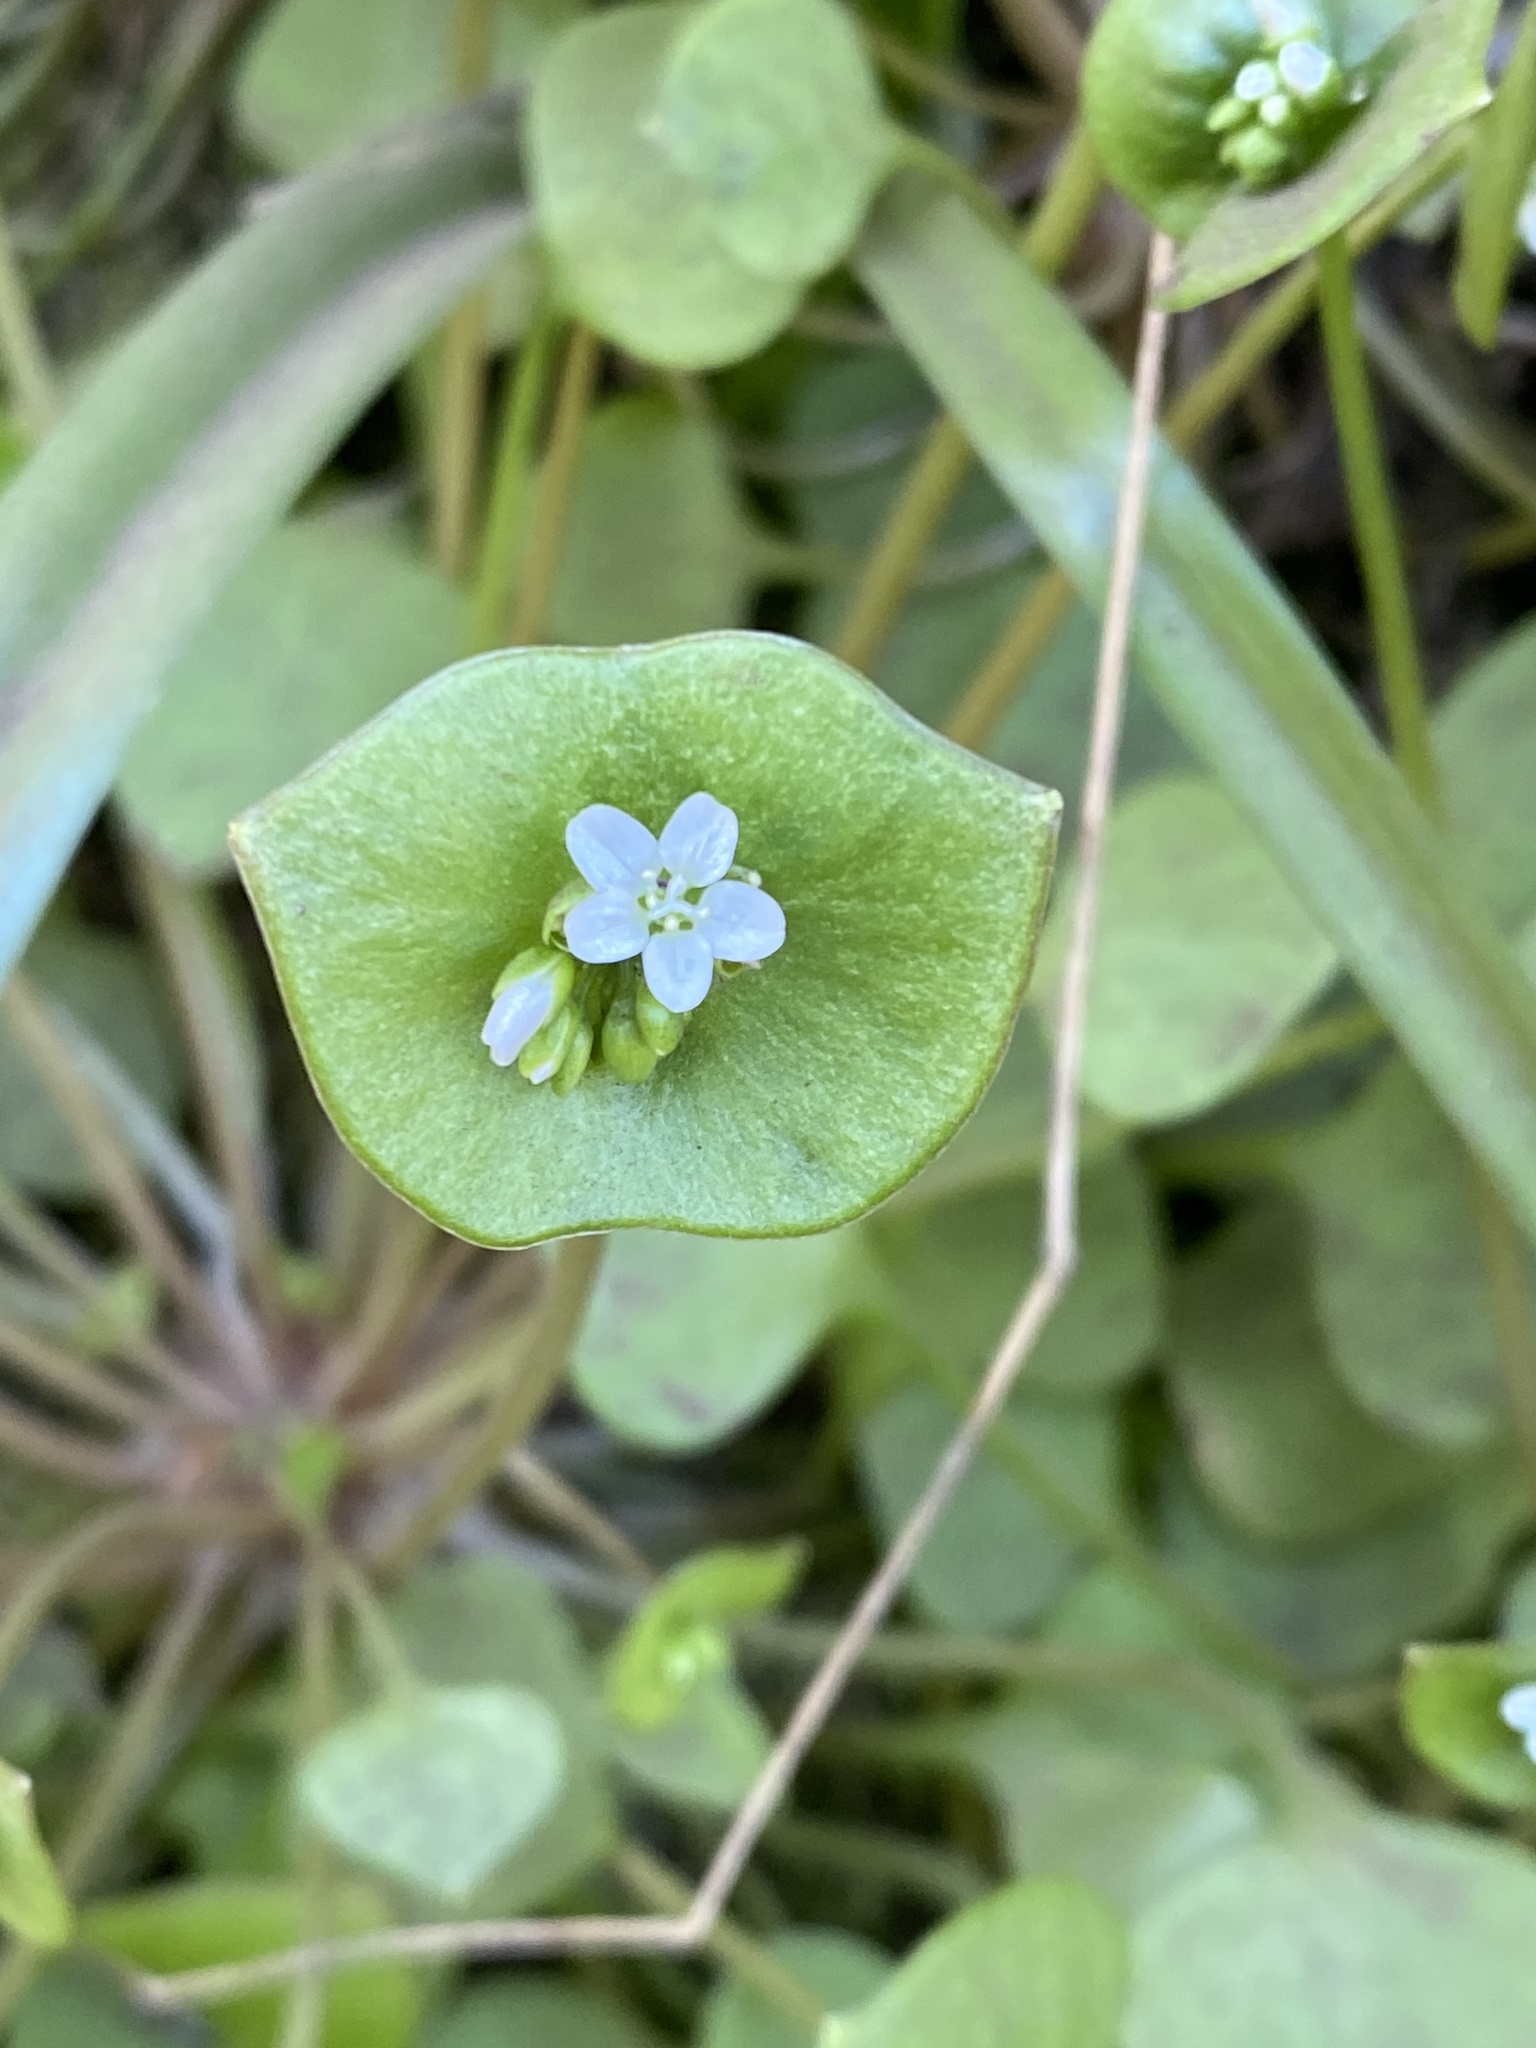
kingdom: Plantae
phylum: Tracheophyta
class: Magnoliopsida
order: Caryophyllales
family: Montiaceae
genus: Claytonia
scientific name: Claytonia perfoliata
